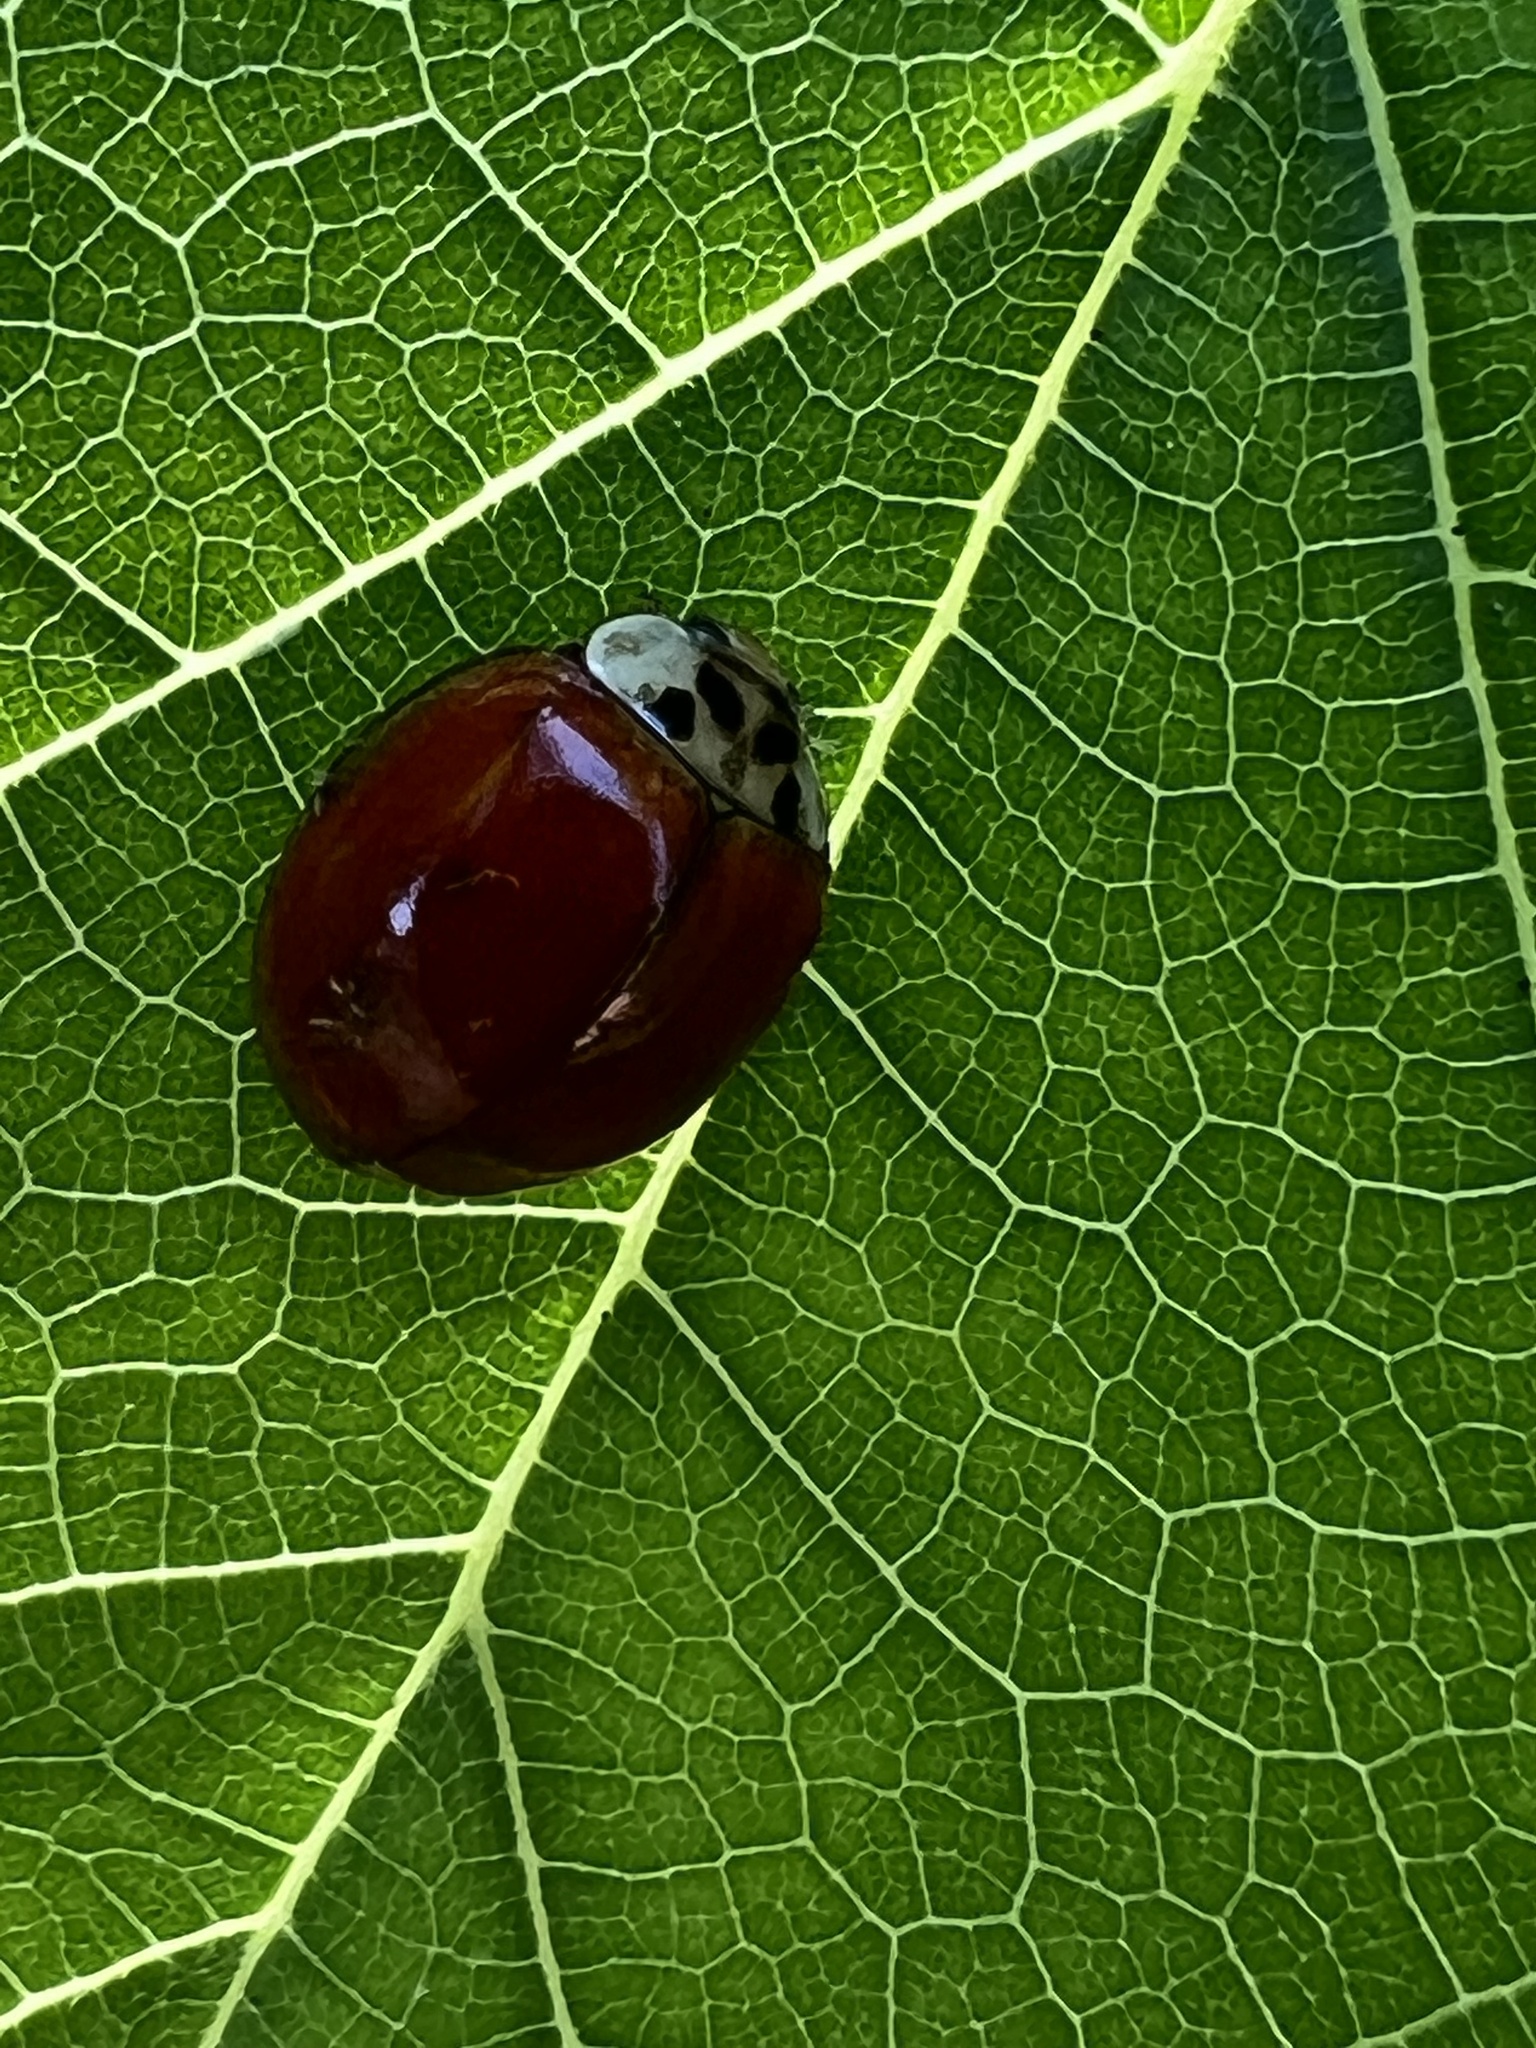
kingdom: Animalia
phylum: Arthropoda
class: Insecta
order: Coleoptera
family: Coccinellidae
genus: Harmonia
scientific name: Harmonia axyridis
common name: Harlequin ladybird
